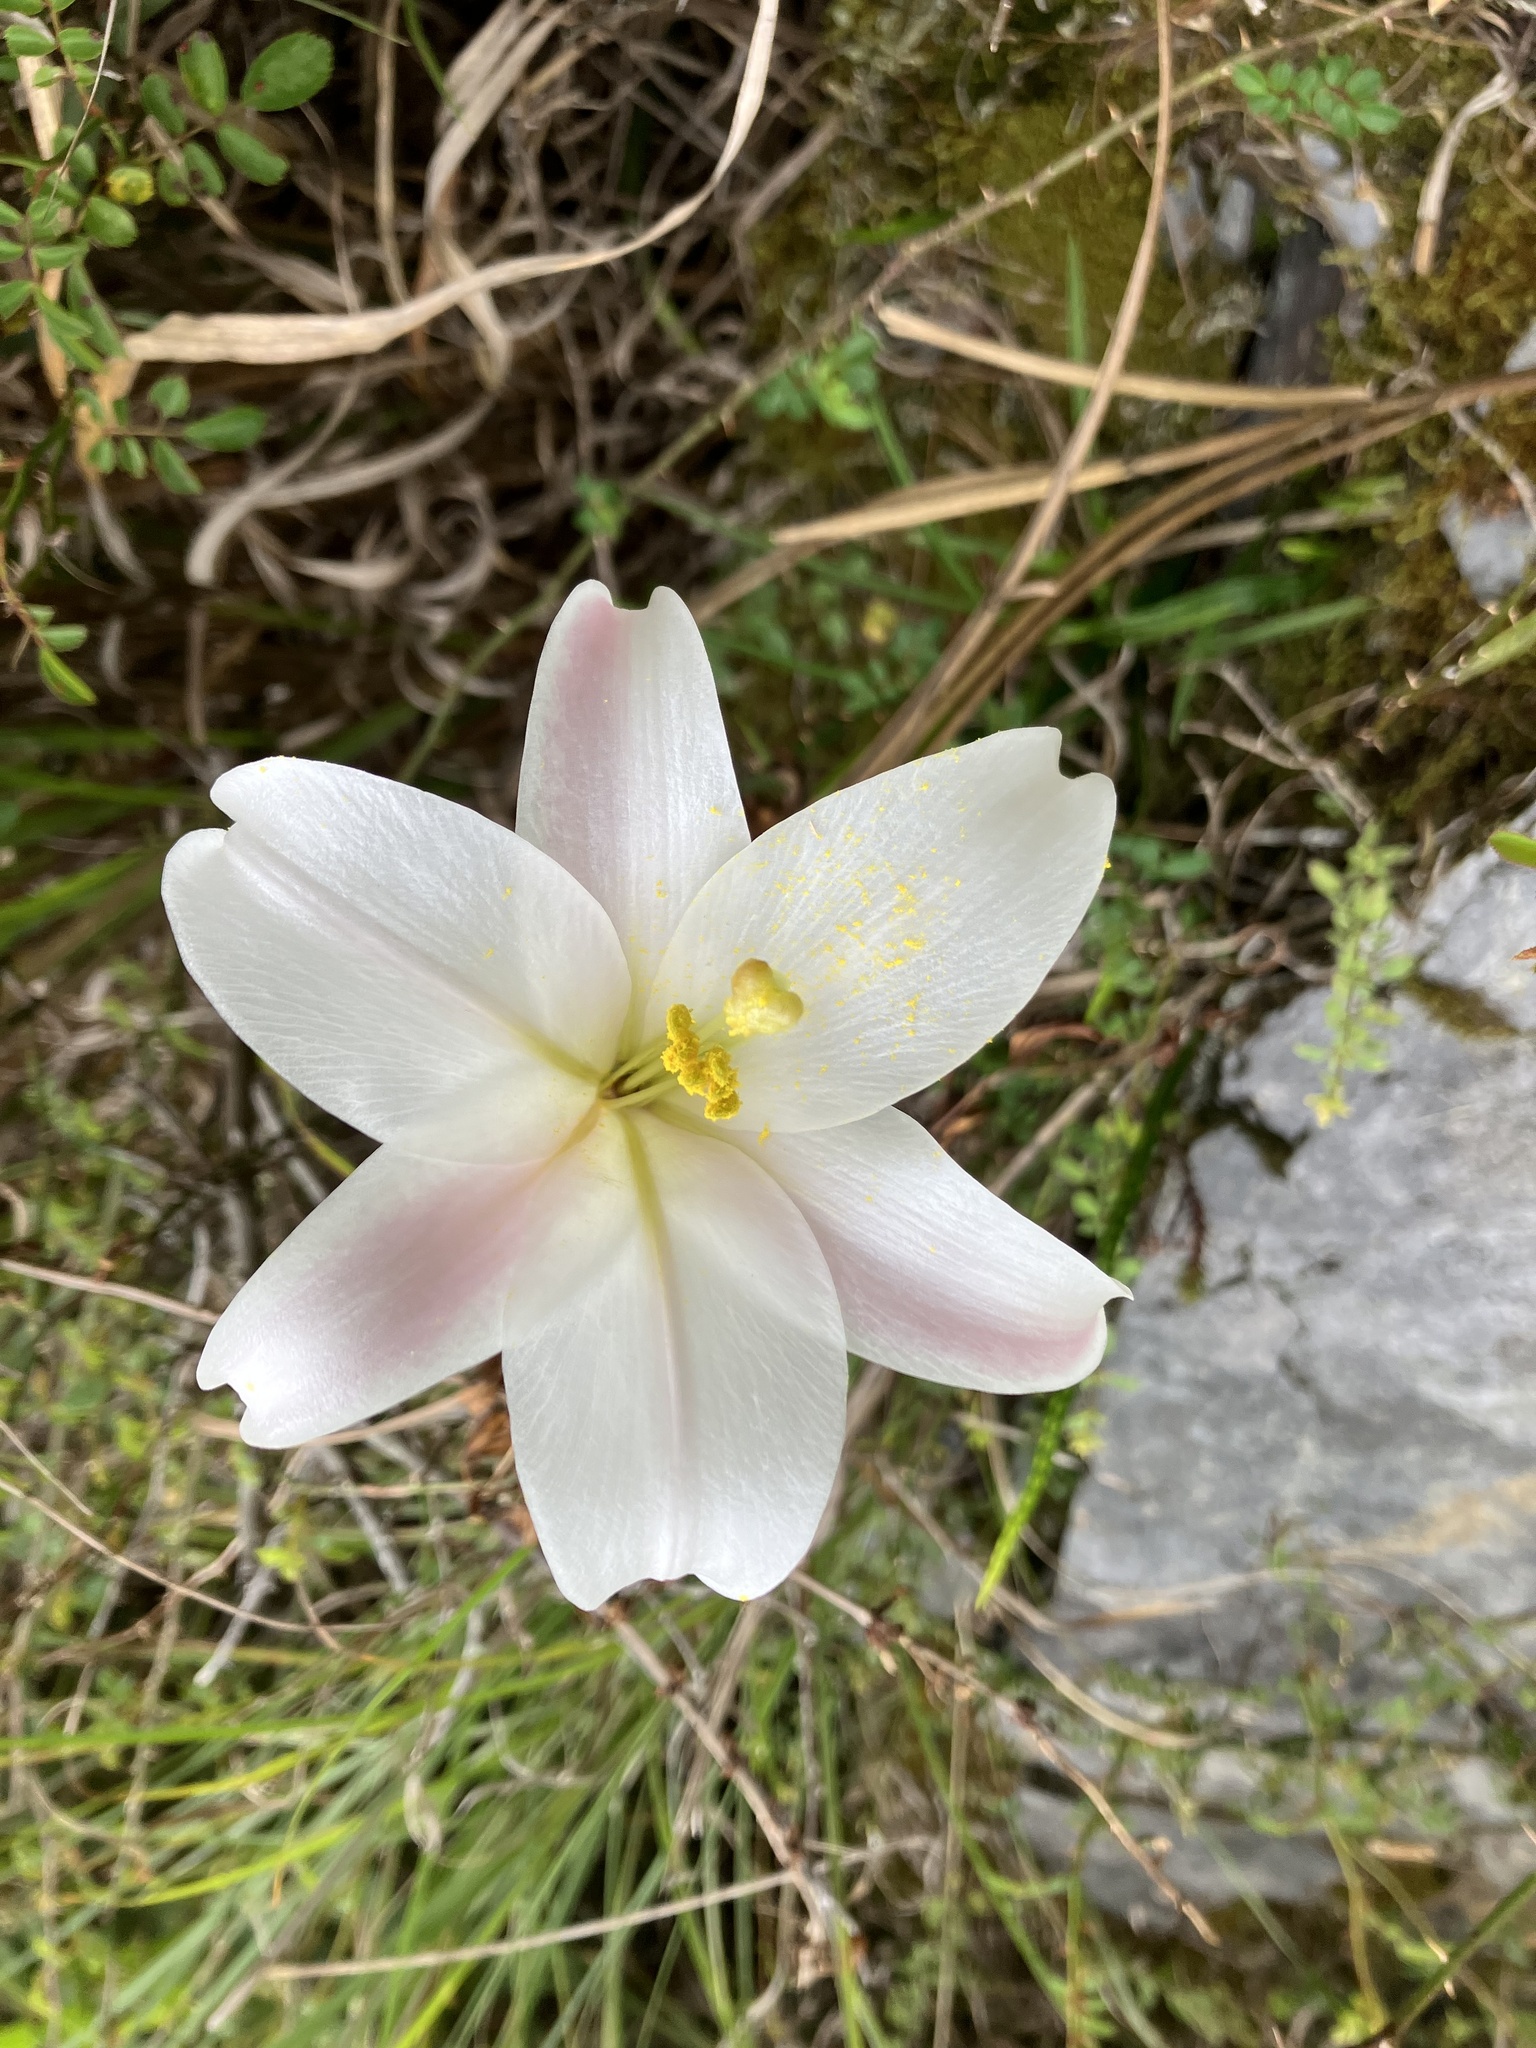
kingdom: Plantae
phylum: Tracheophyta
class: Liliopsida
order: Liliales
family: Liliaceae
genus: Lilium
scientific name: Lilium formosanum
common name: Formosa lily
